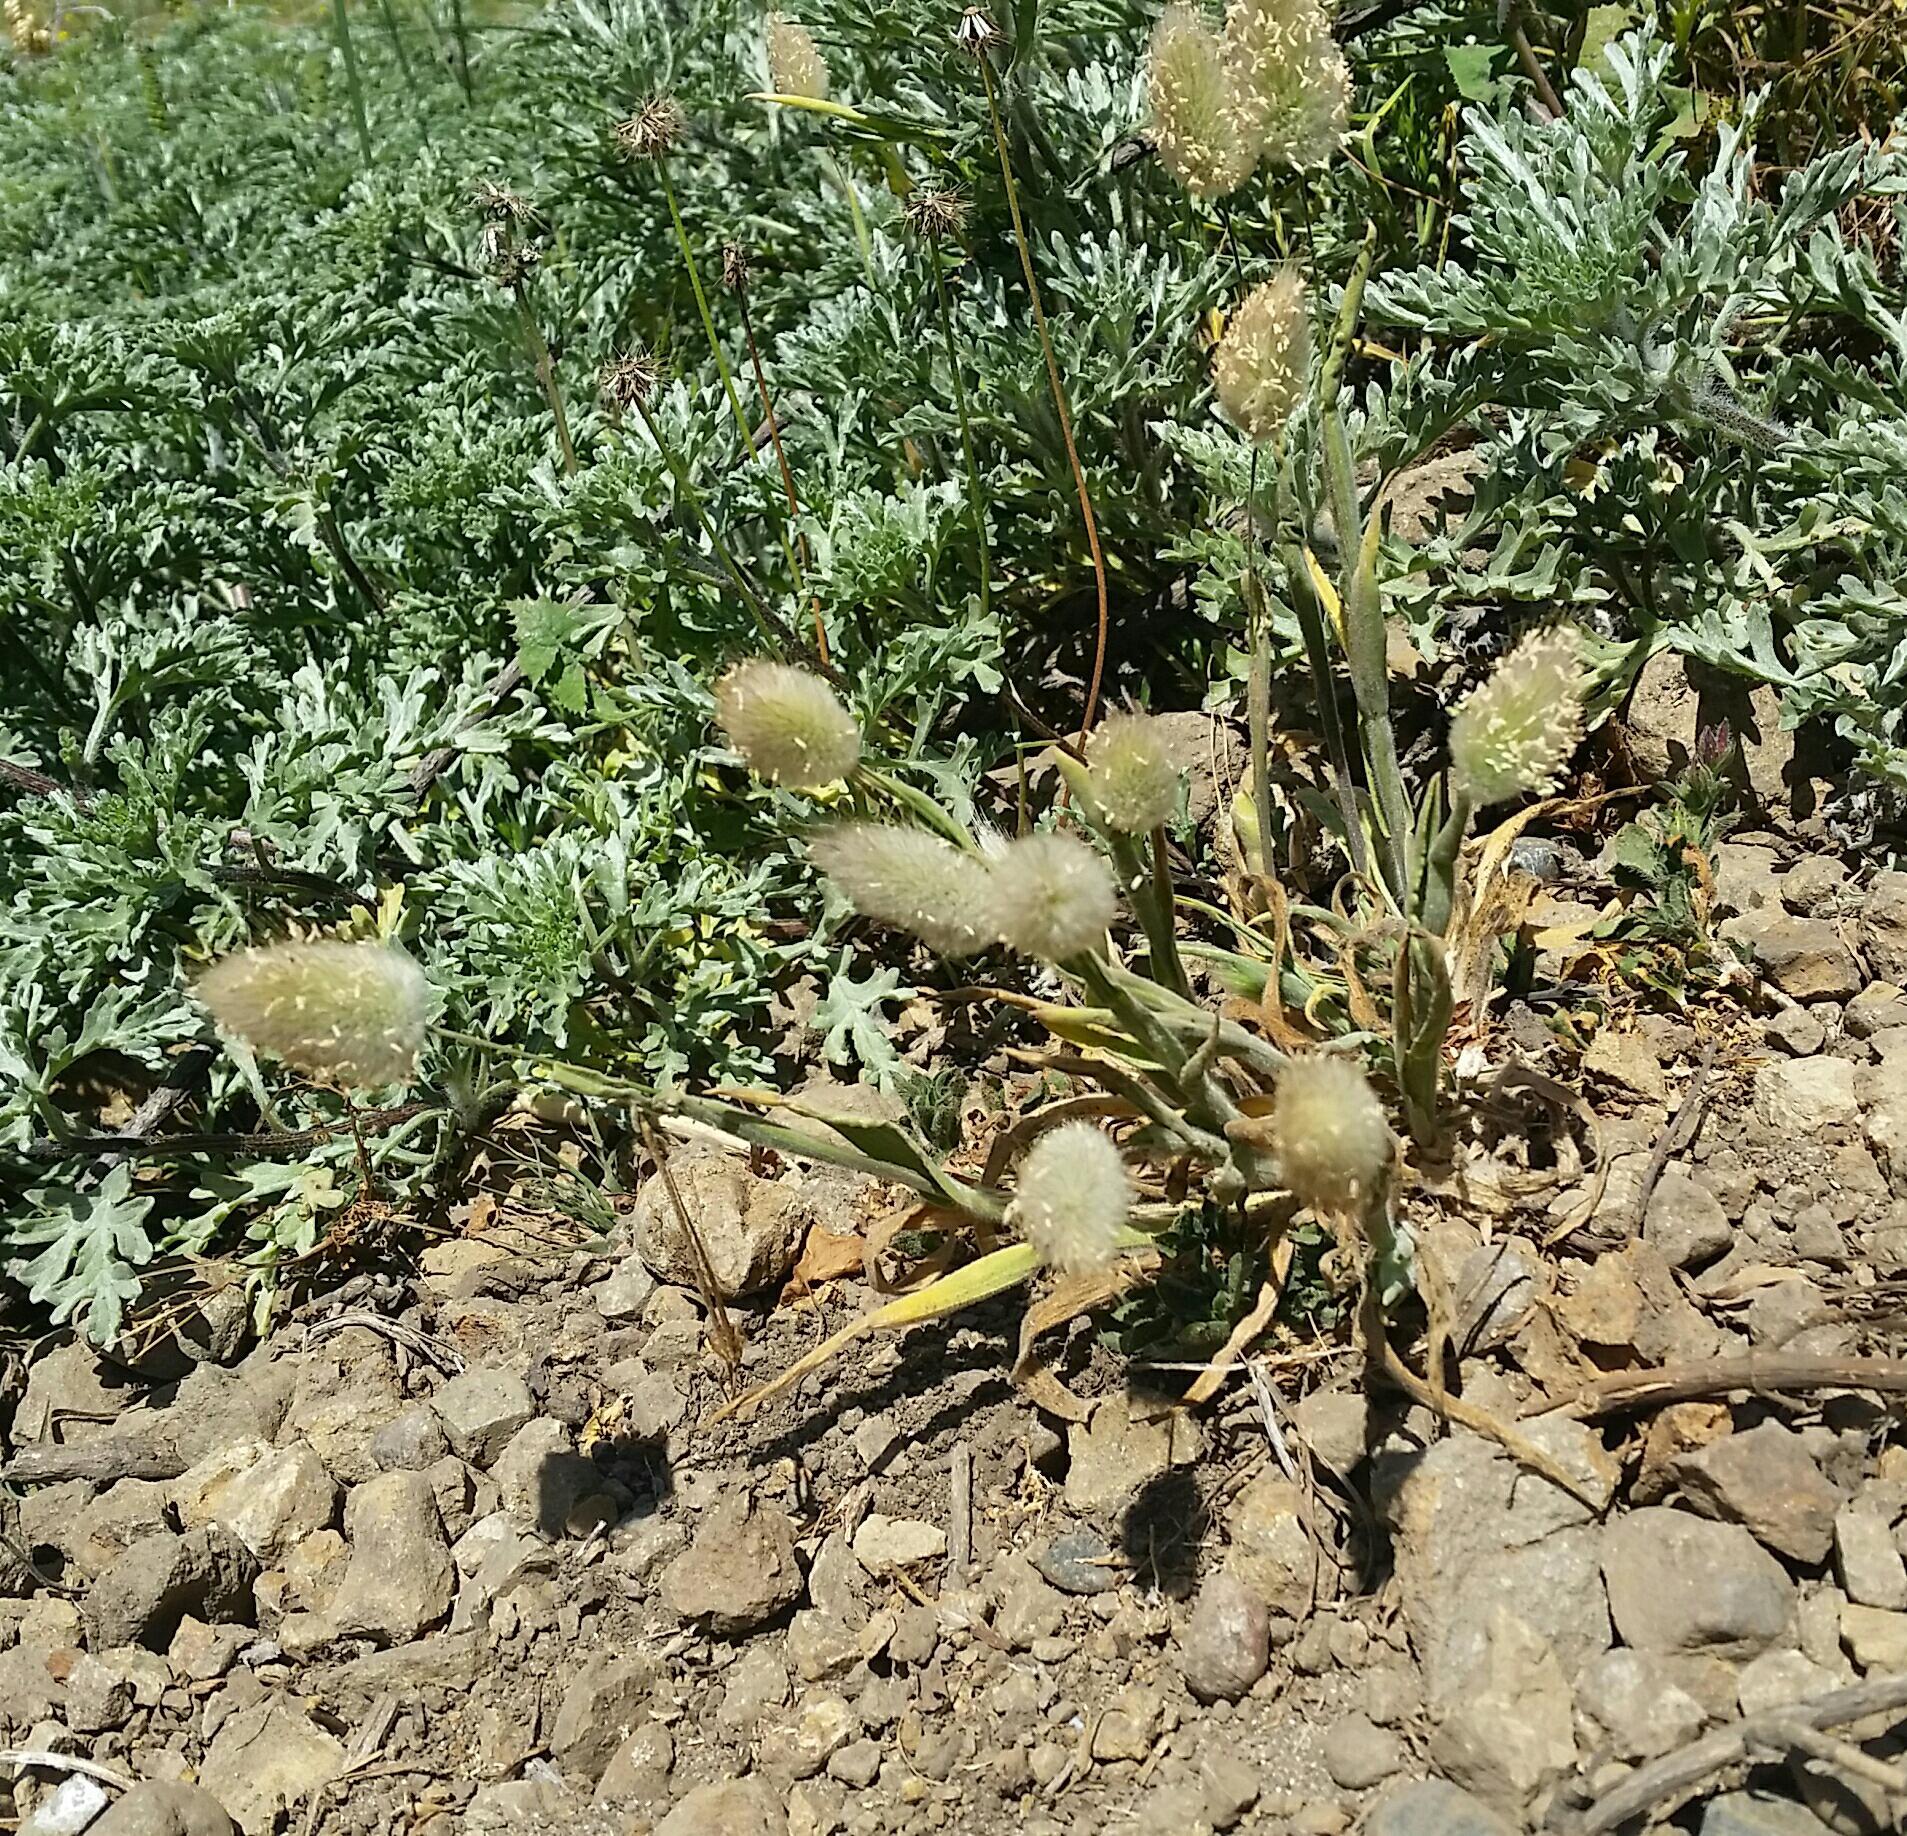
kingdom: Plantae
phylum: Tracheophyta
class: Liliopsida
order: Poales
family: Poaceae
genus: Lagurus
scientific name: Lagurus ovatus
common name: Hare's-tail
